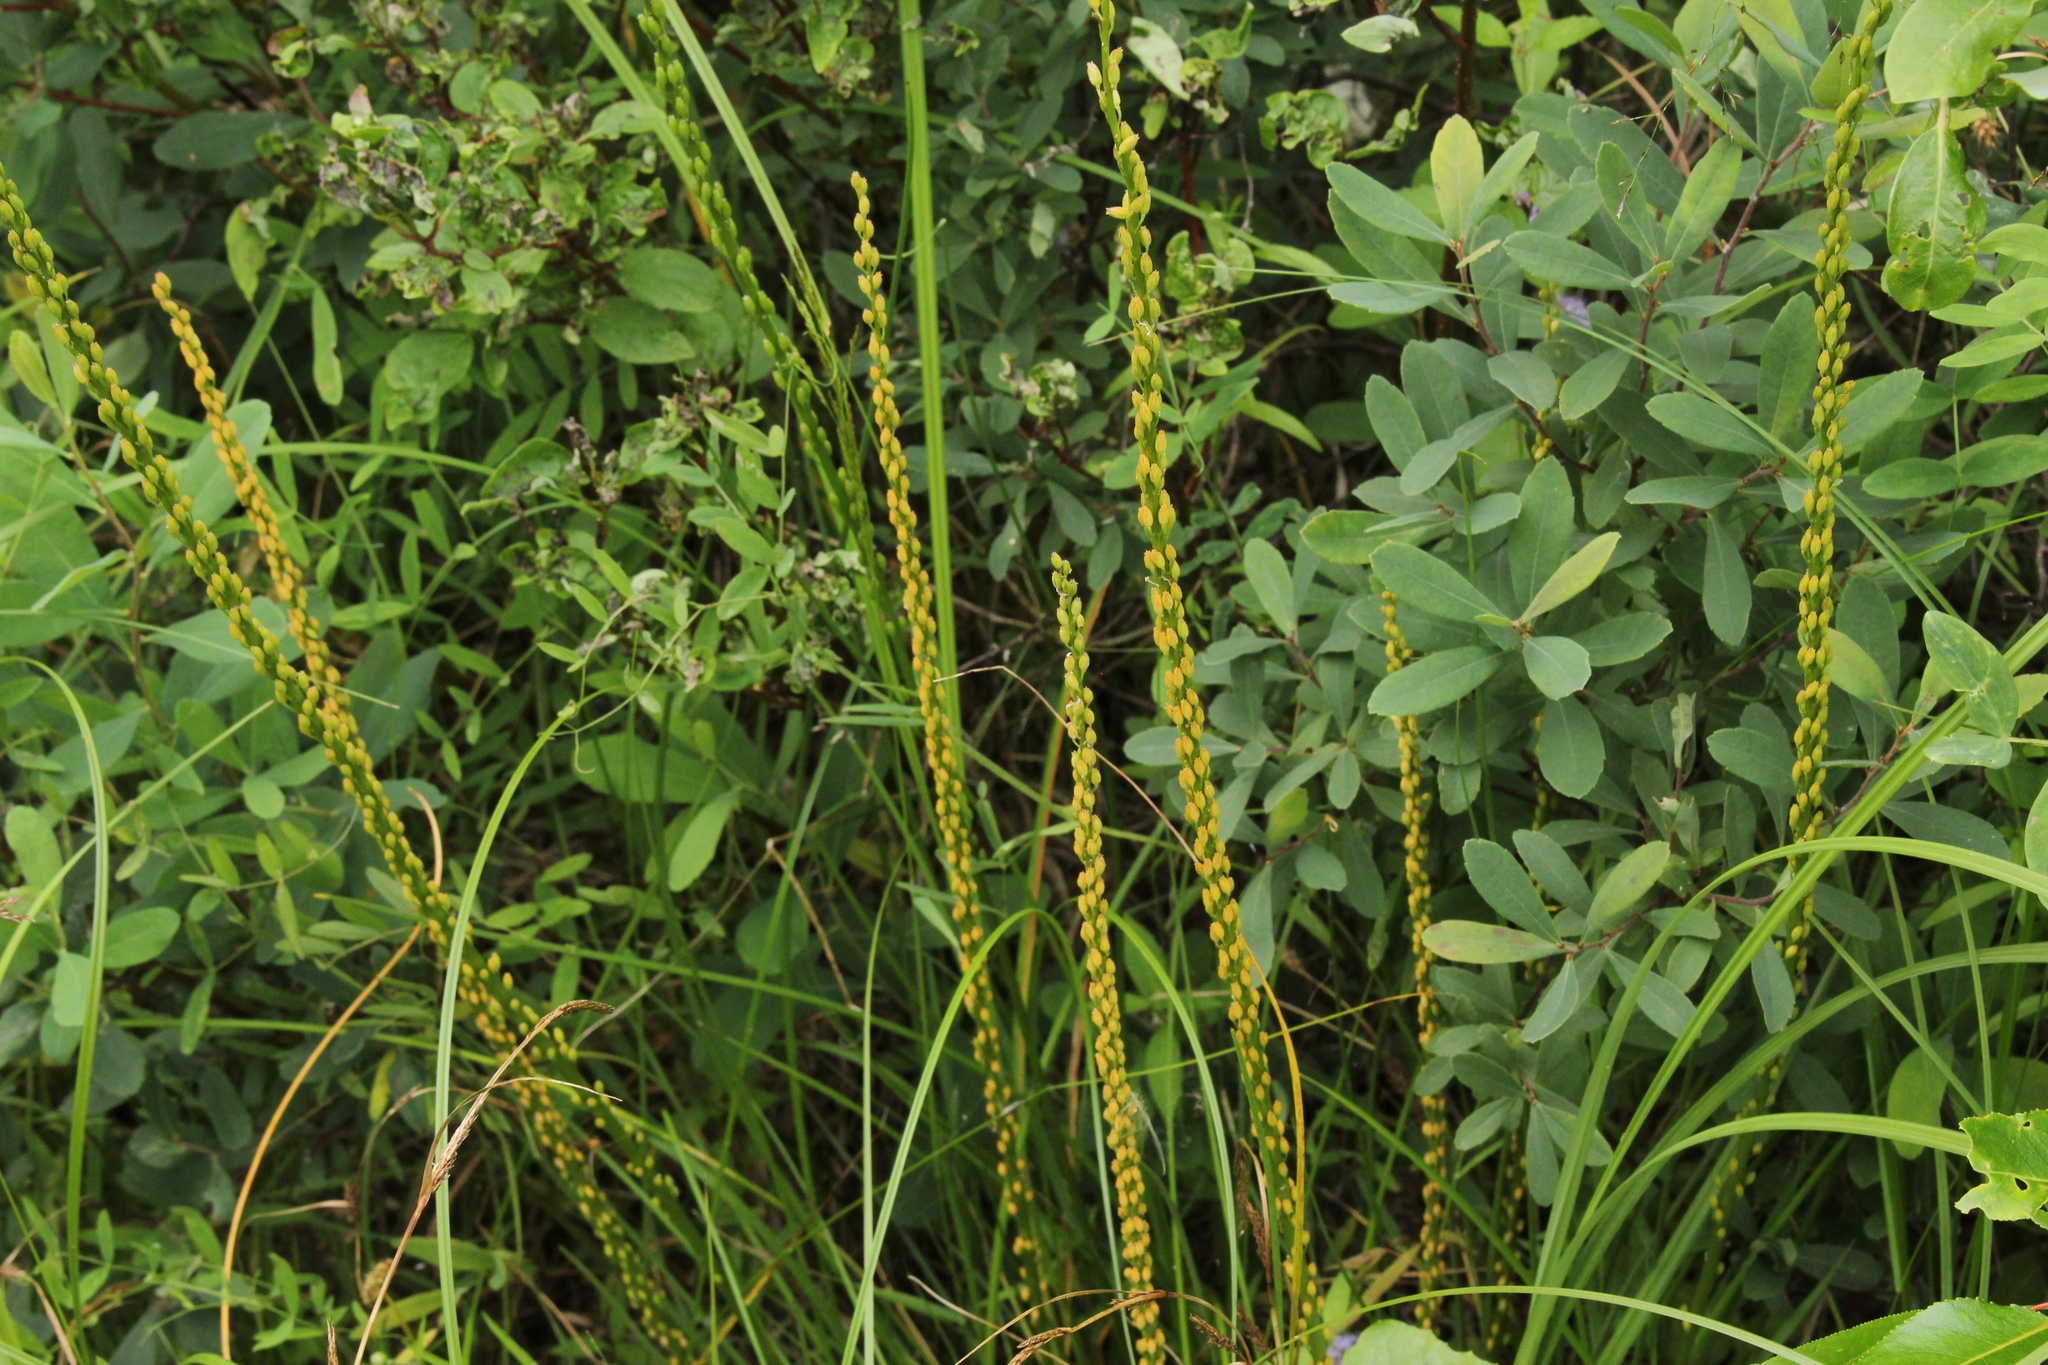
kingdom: Plantae
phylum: Tracheophyta
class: Liliopsida
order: Alismatales
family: Juncaginaceae
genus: Triglochin
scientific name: Triglochin maritima
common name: Sea arrowgrass
